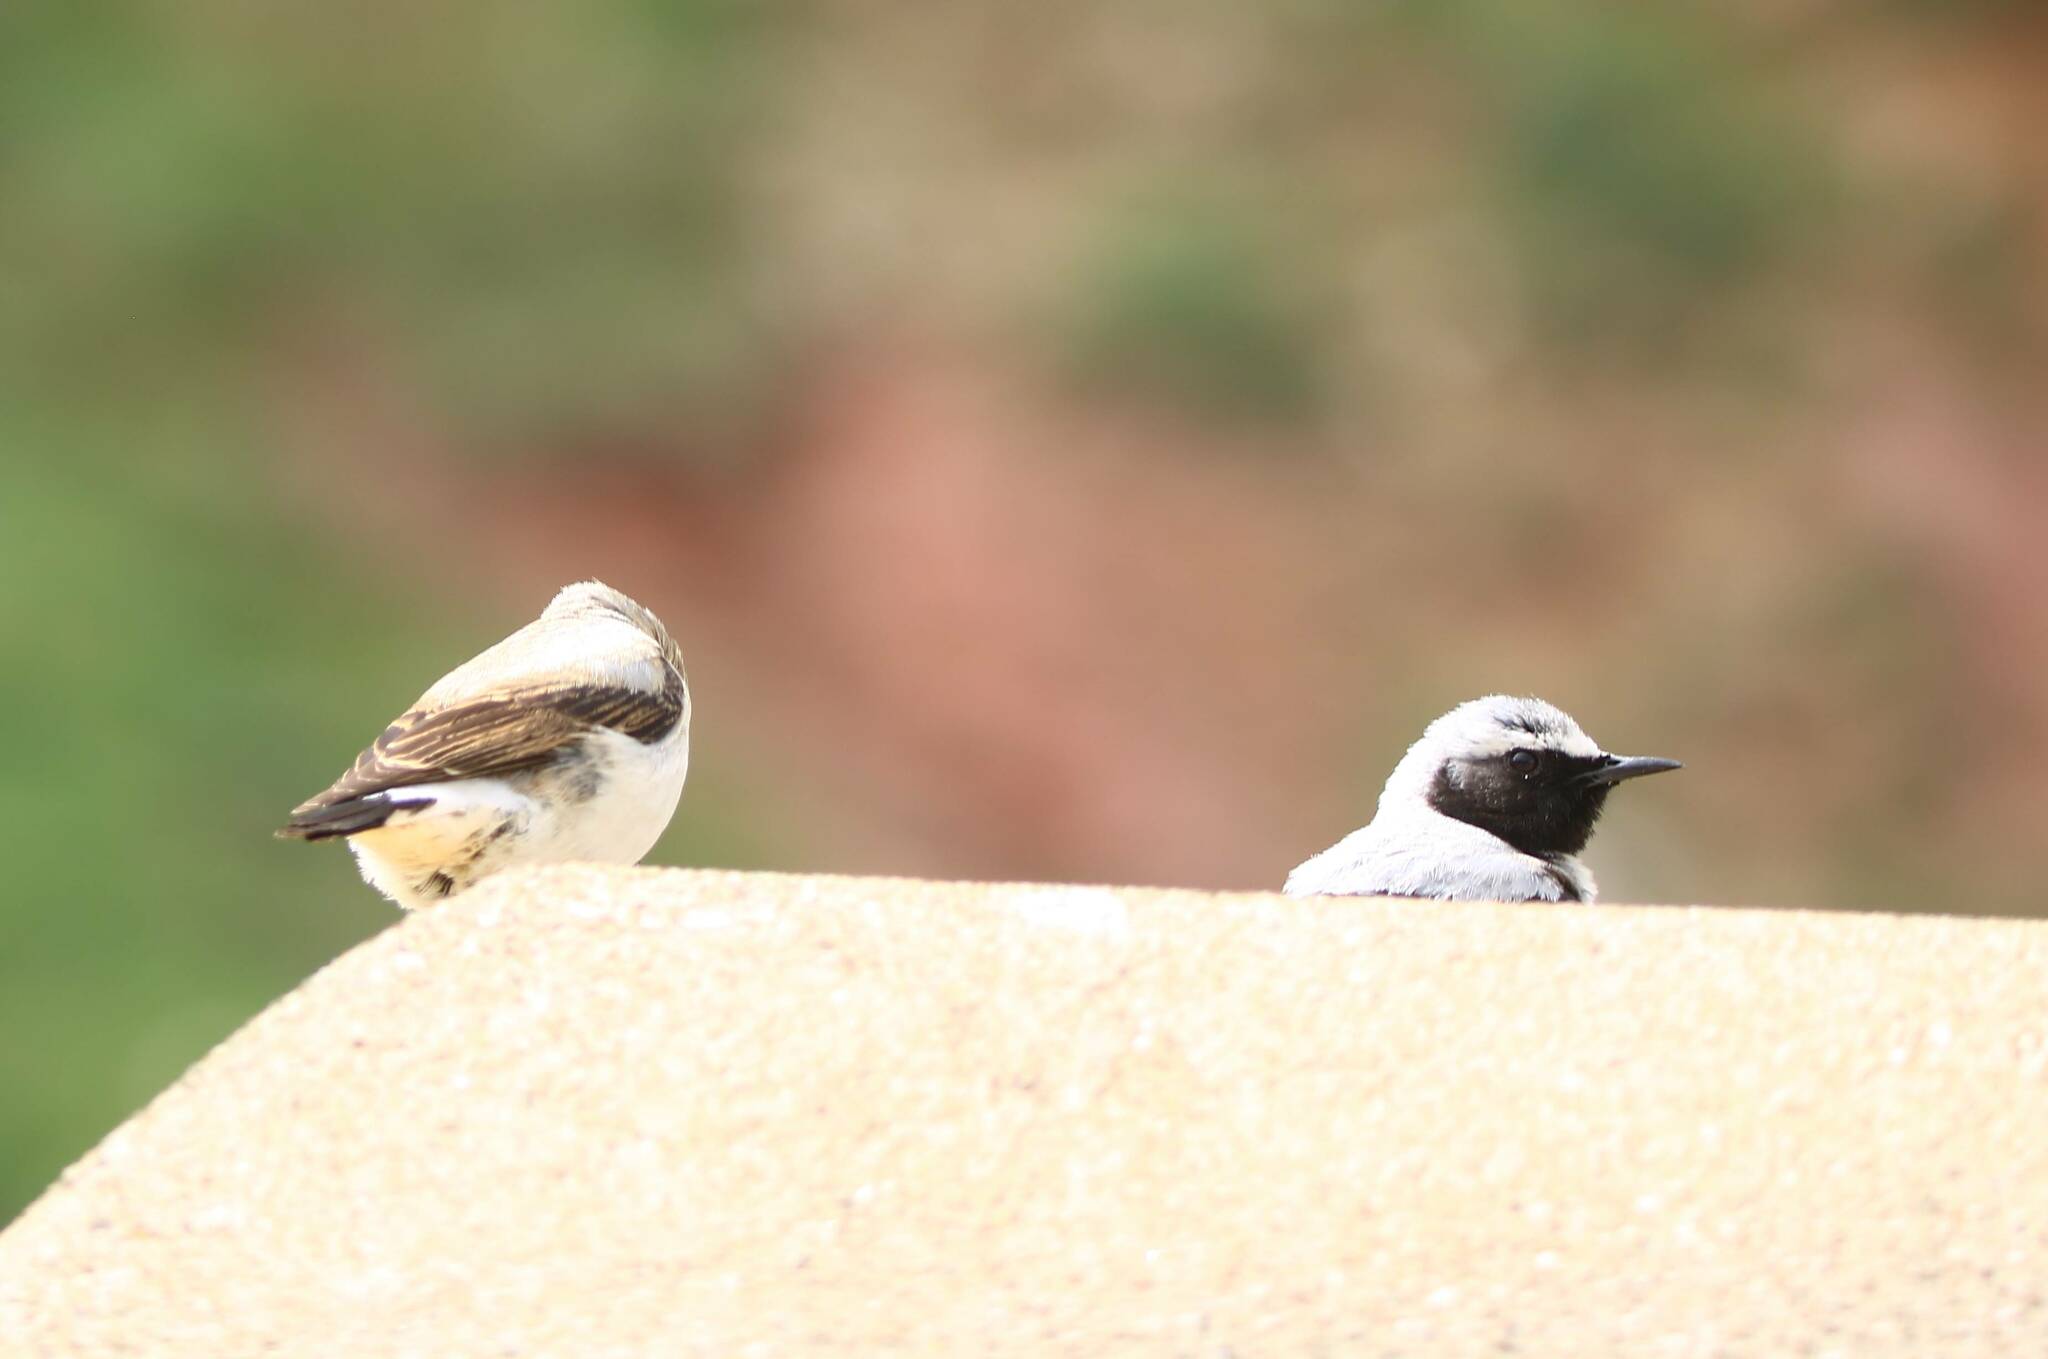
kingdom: Animalia
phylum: Chordata
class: Aves
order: Passeriformes
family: Muscicapidae
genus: Oenanthe
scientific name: Oenanthe oenanthe
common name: Northern wheatear
